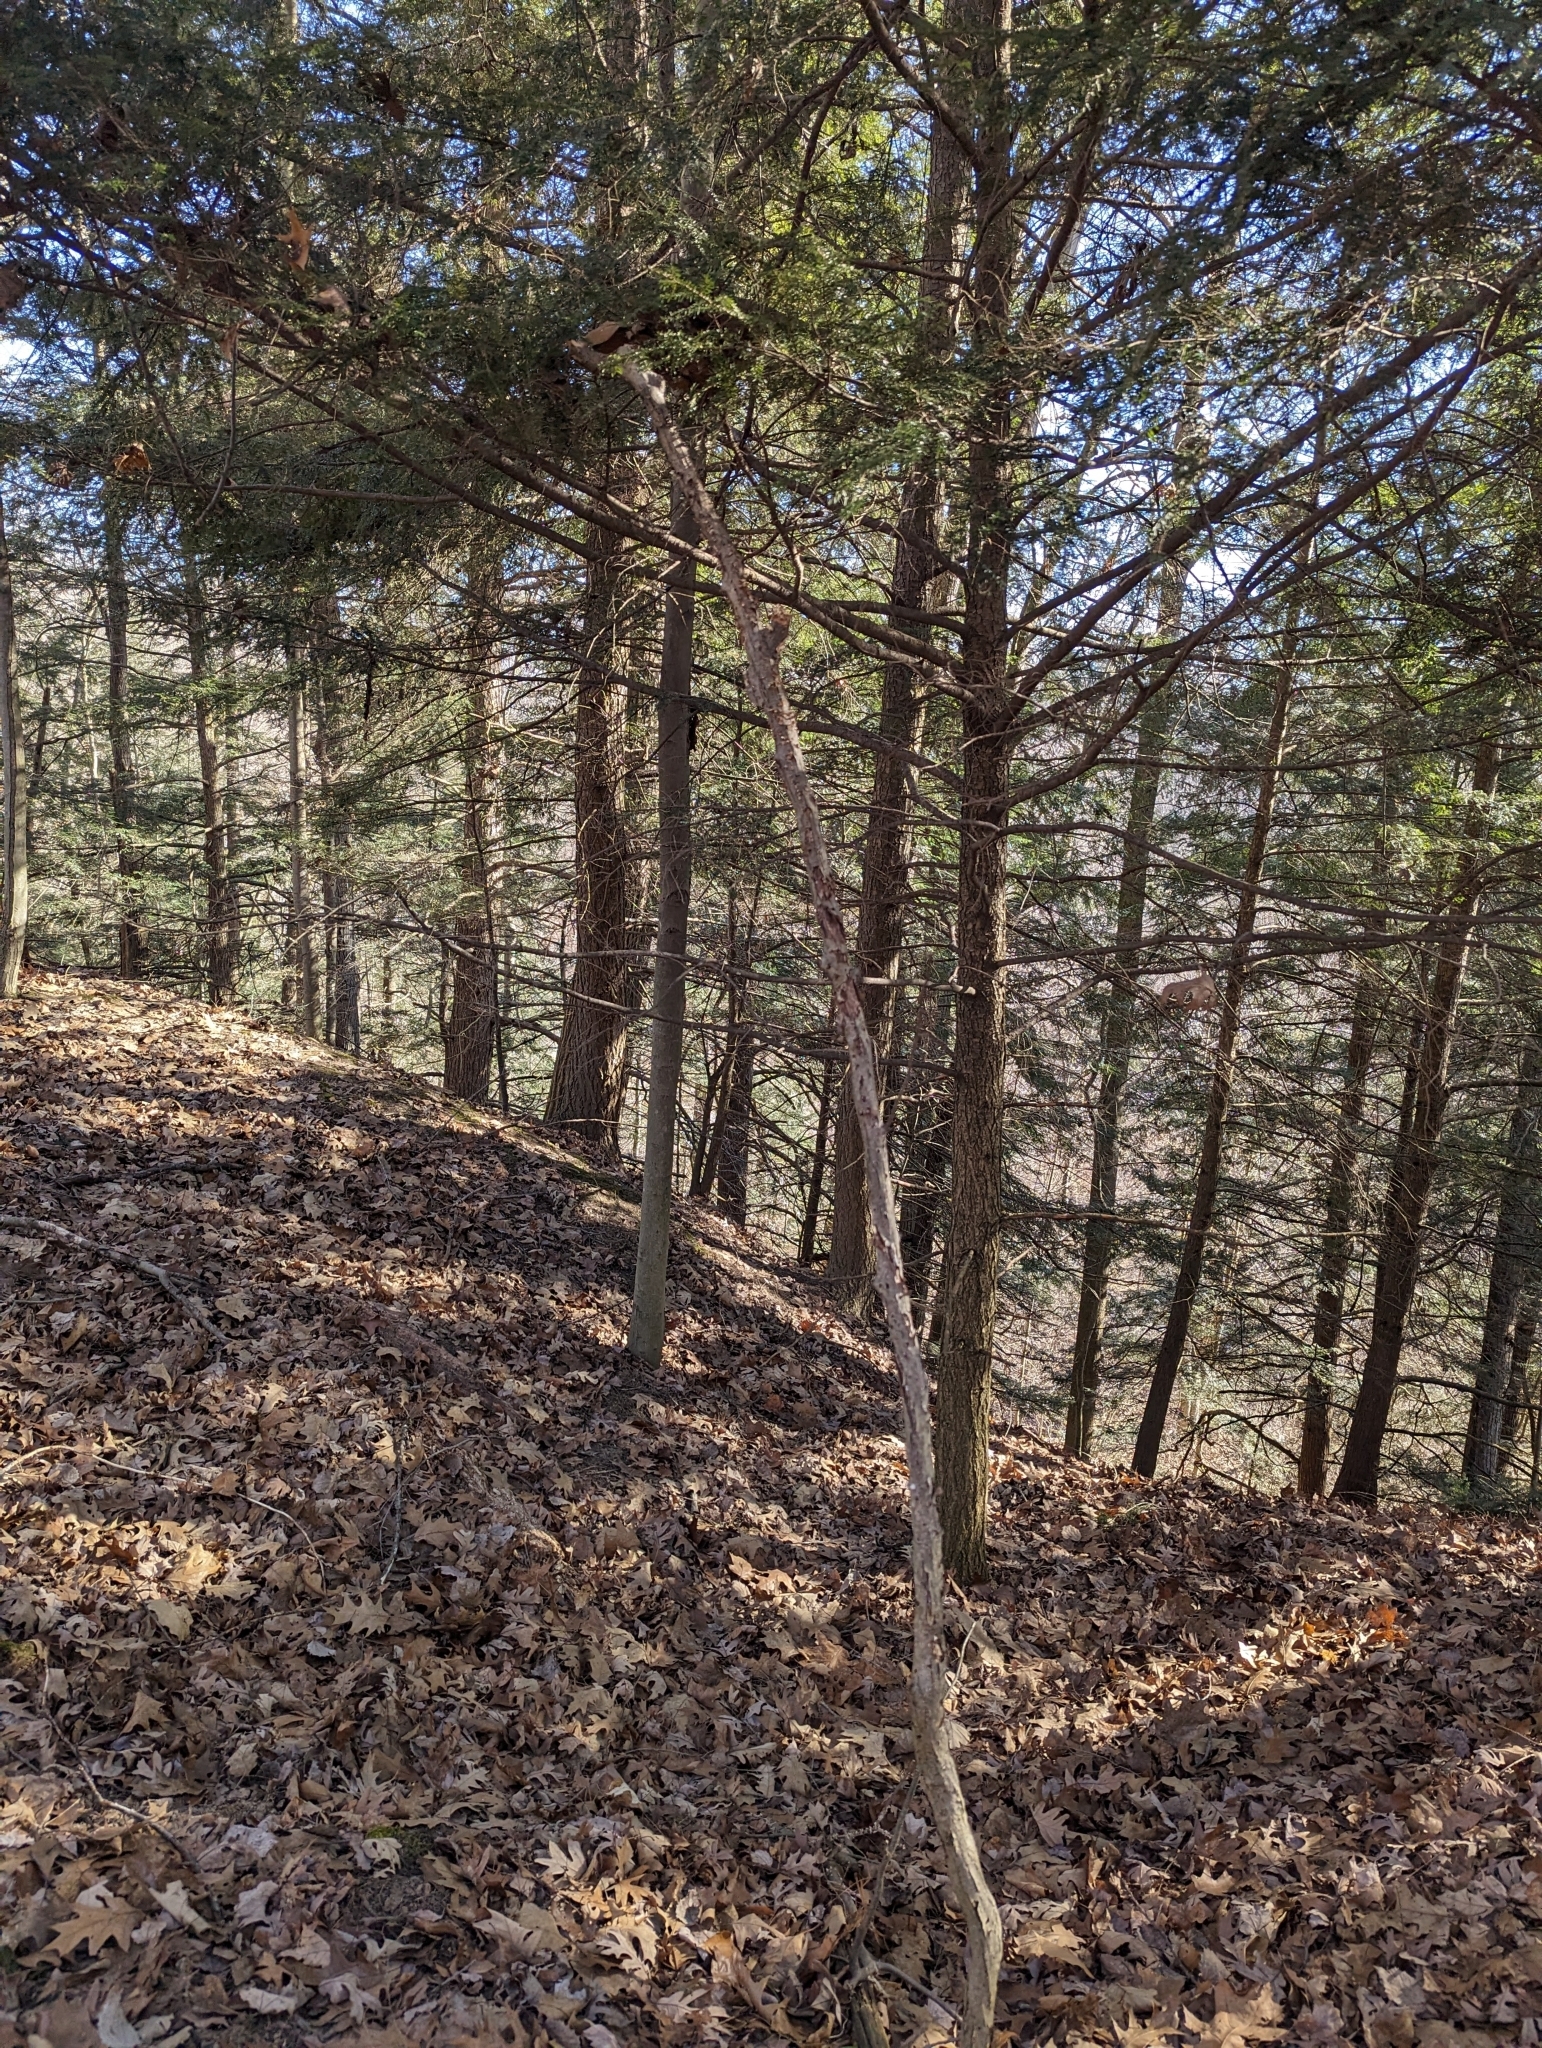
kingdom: Plantae
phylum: Tracheophyta
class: Pinopsida
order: Pinales
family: Pinaceae
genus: Tsuga
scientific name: Tsuga canadensis
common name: Eastern hemlock
